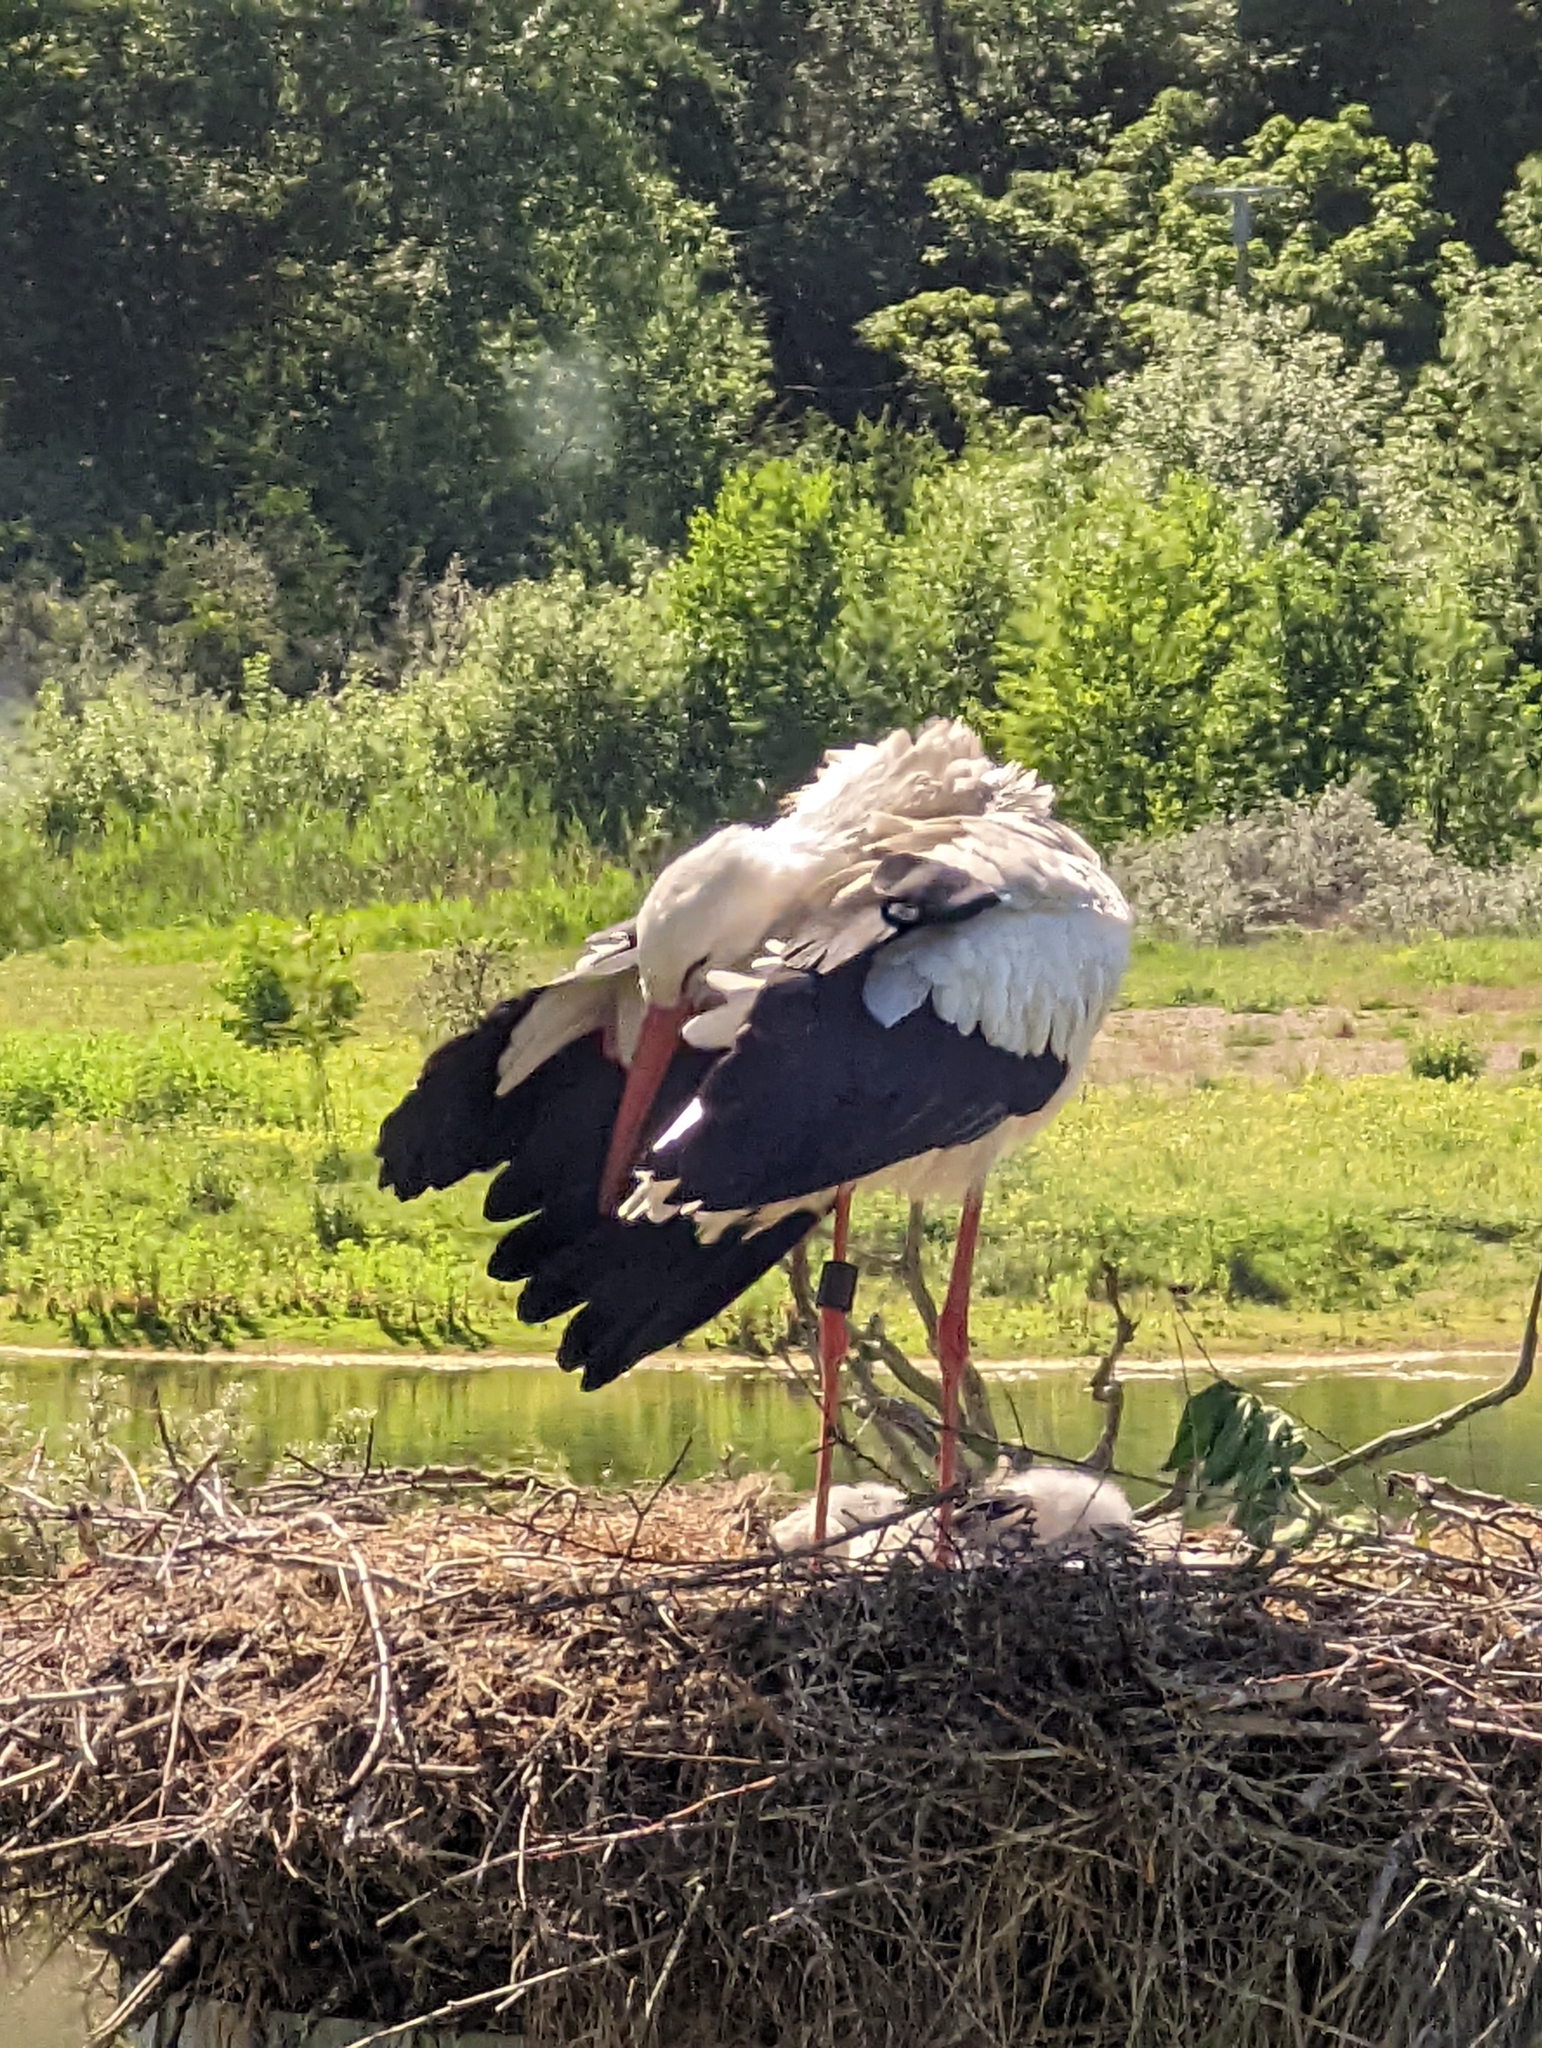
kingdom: Animalia
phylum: Chordata
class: Aves
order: Ciconiiformes
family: Ciconiidae
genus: Ciconia
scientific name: Ciconia ciconia
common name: White stork
